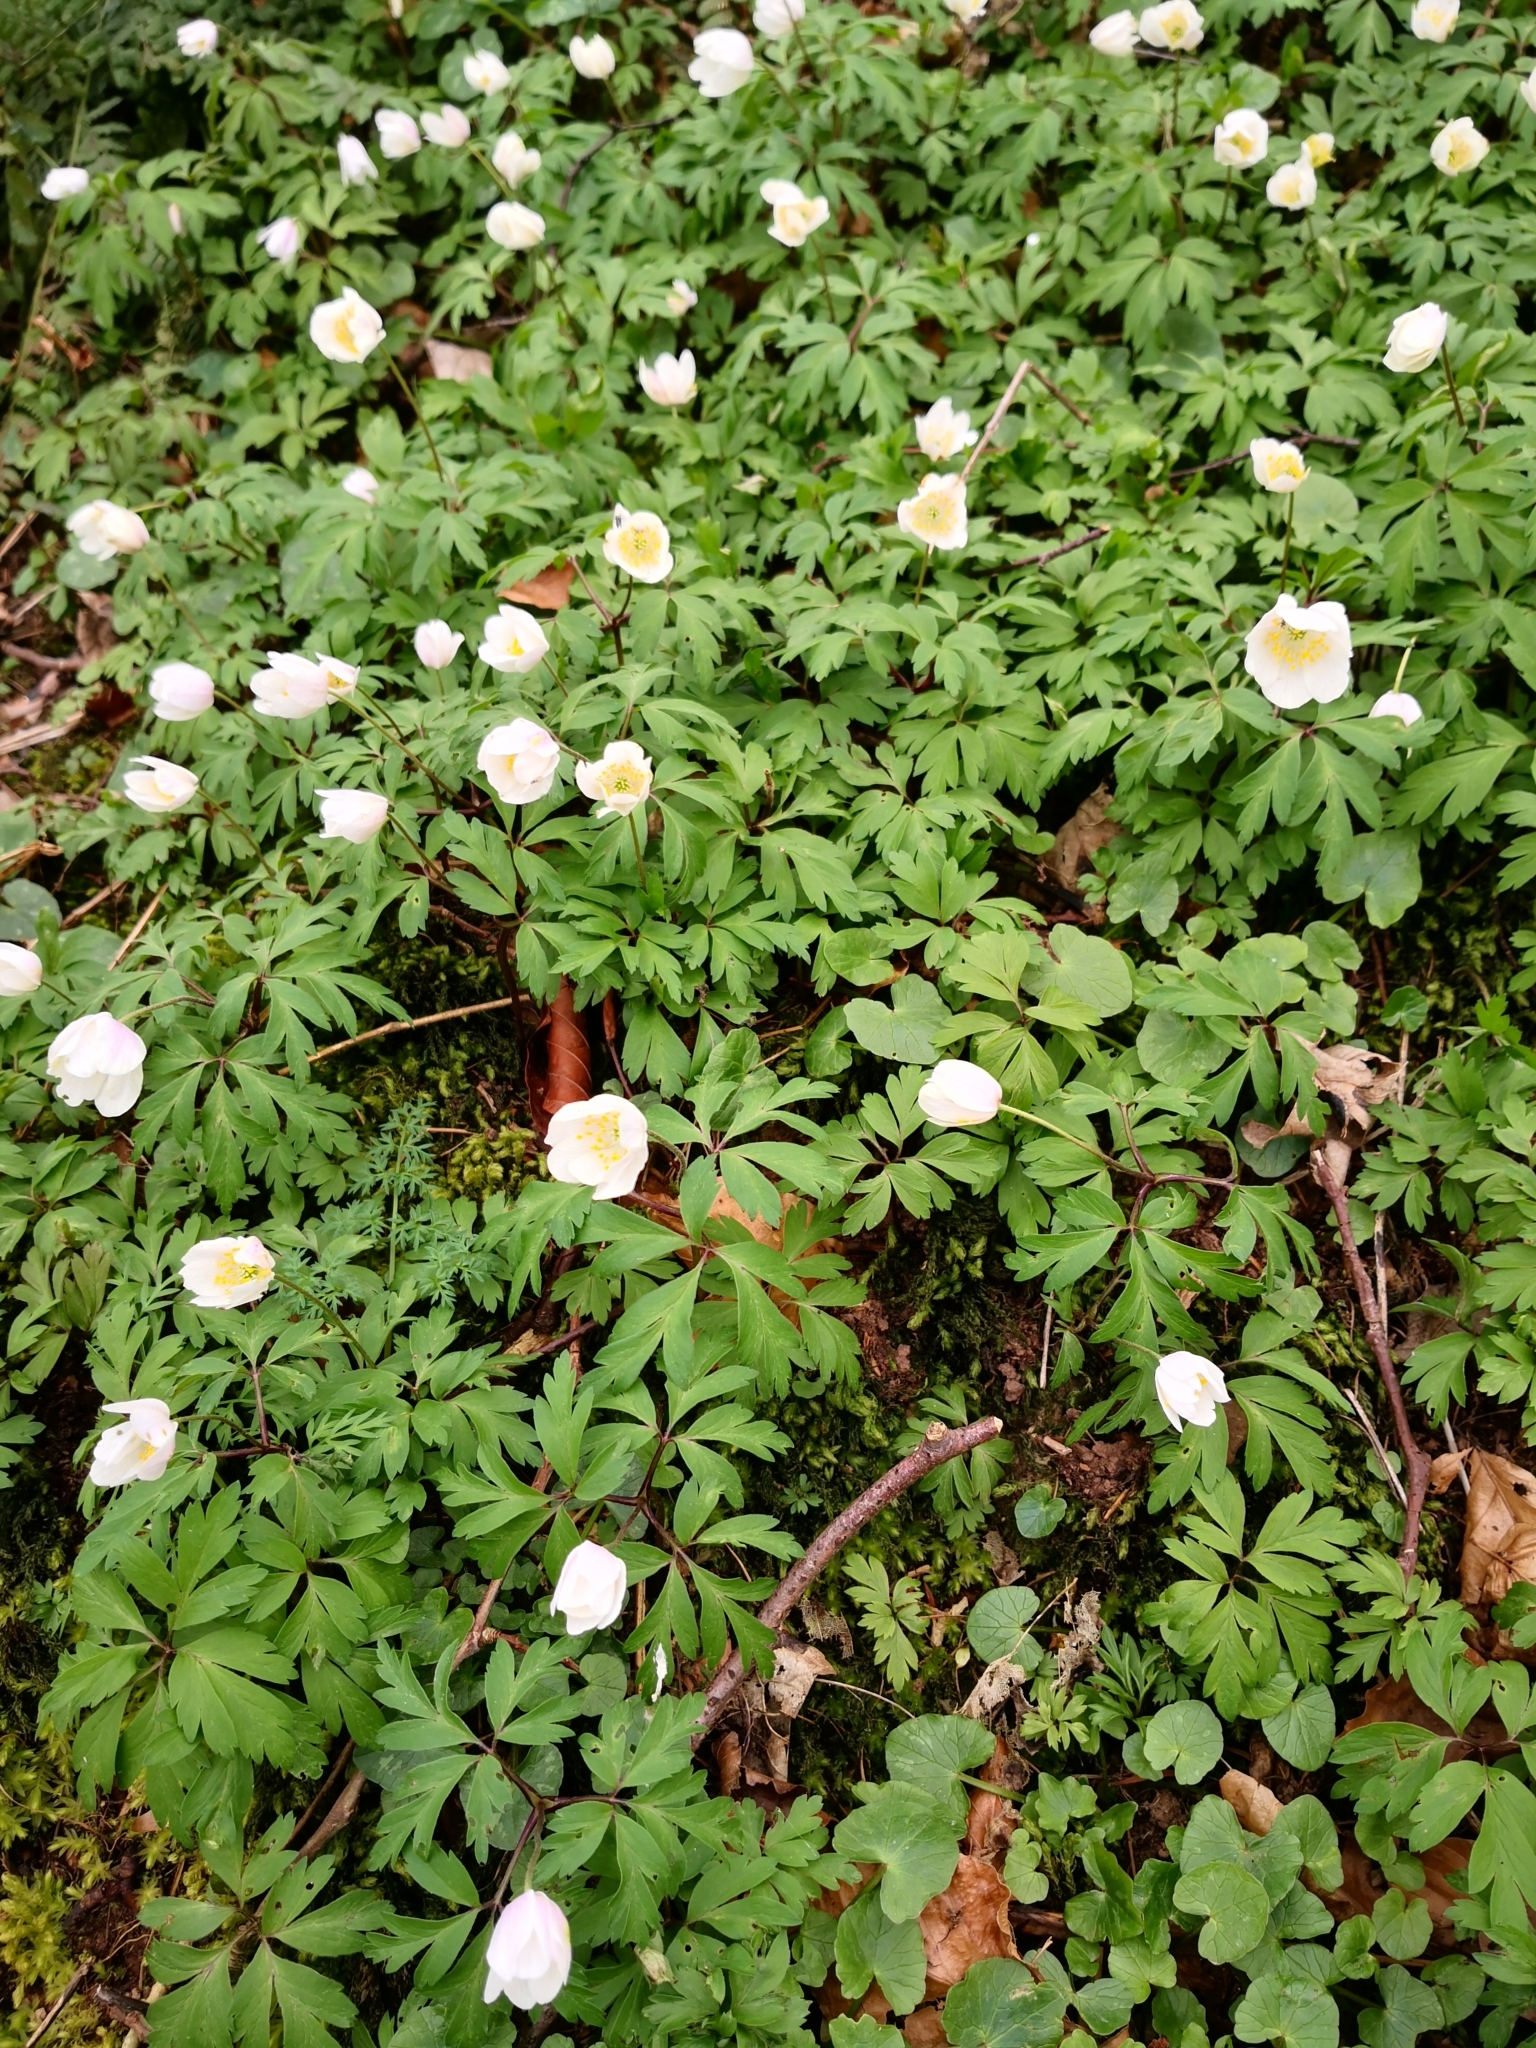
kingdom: Plantae
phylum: Tracheophyta
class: Magnoliopsida
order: Ranunculales
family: Ranunculaceae
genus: Anemone
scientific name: Anemone nemorosa
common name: Wood anemone
